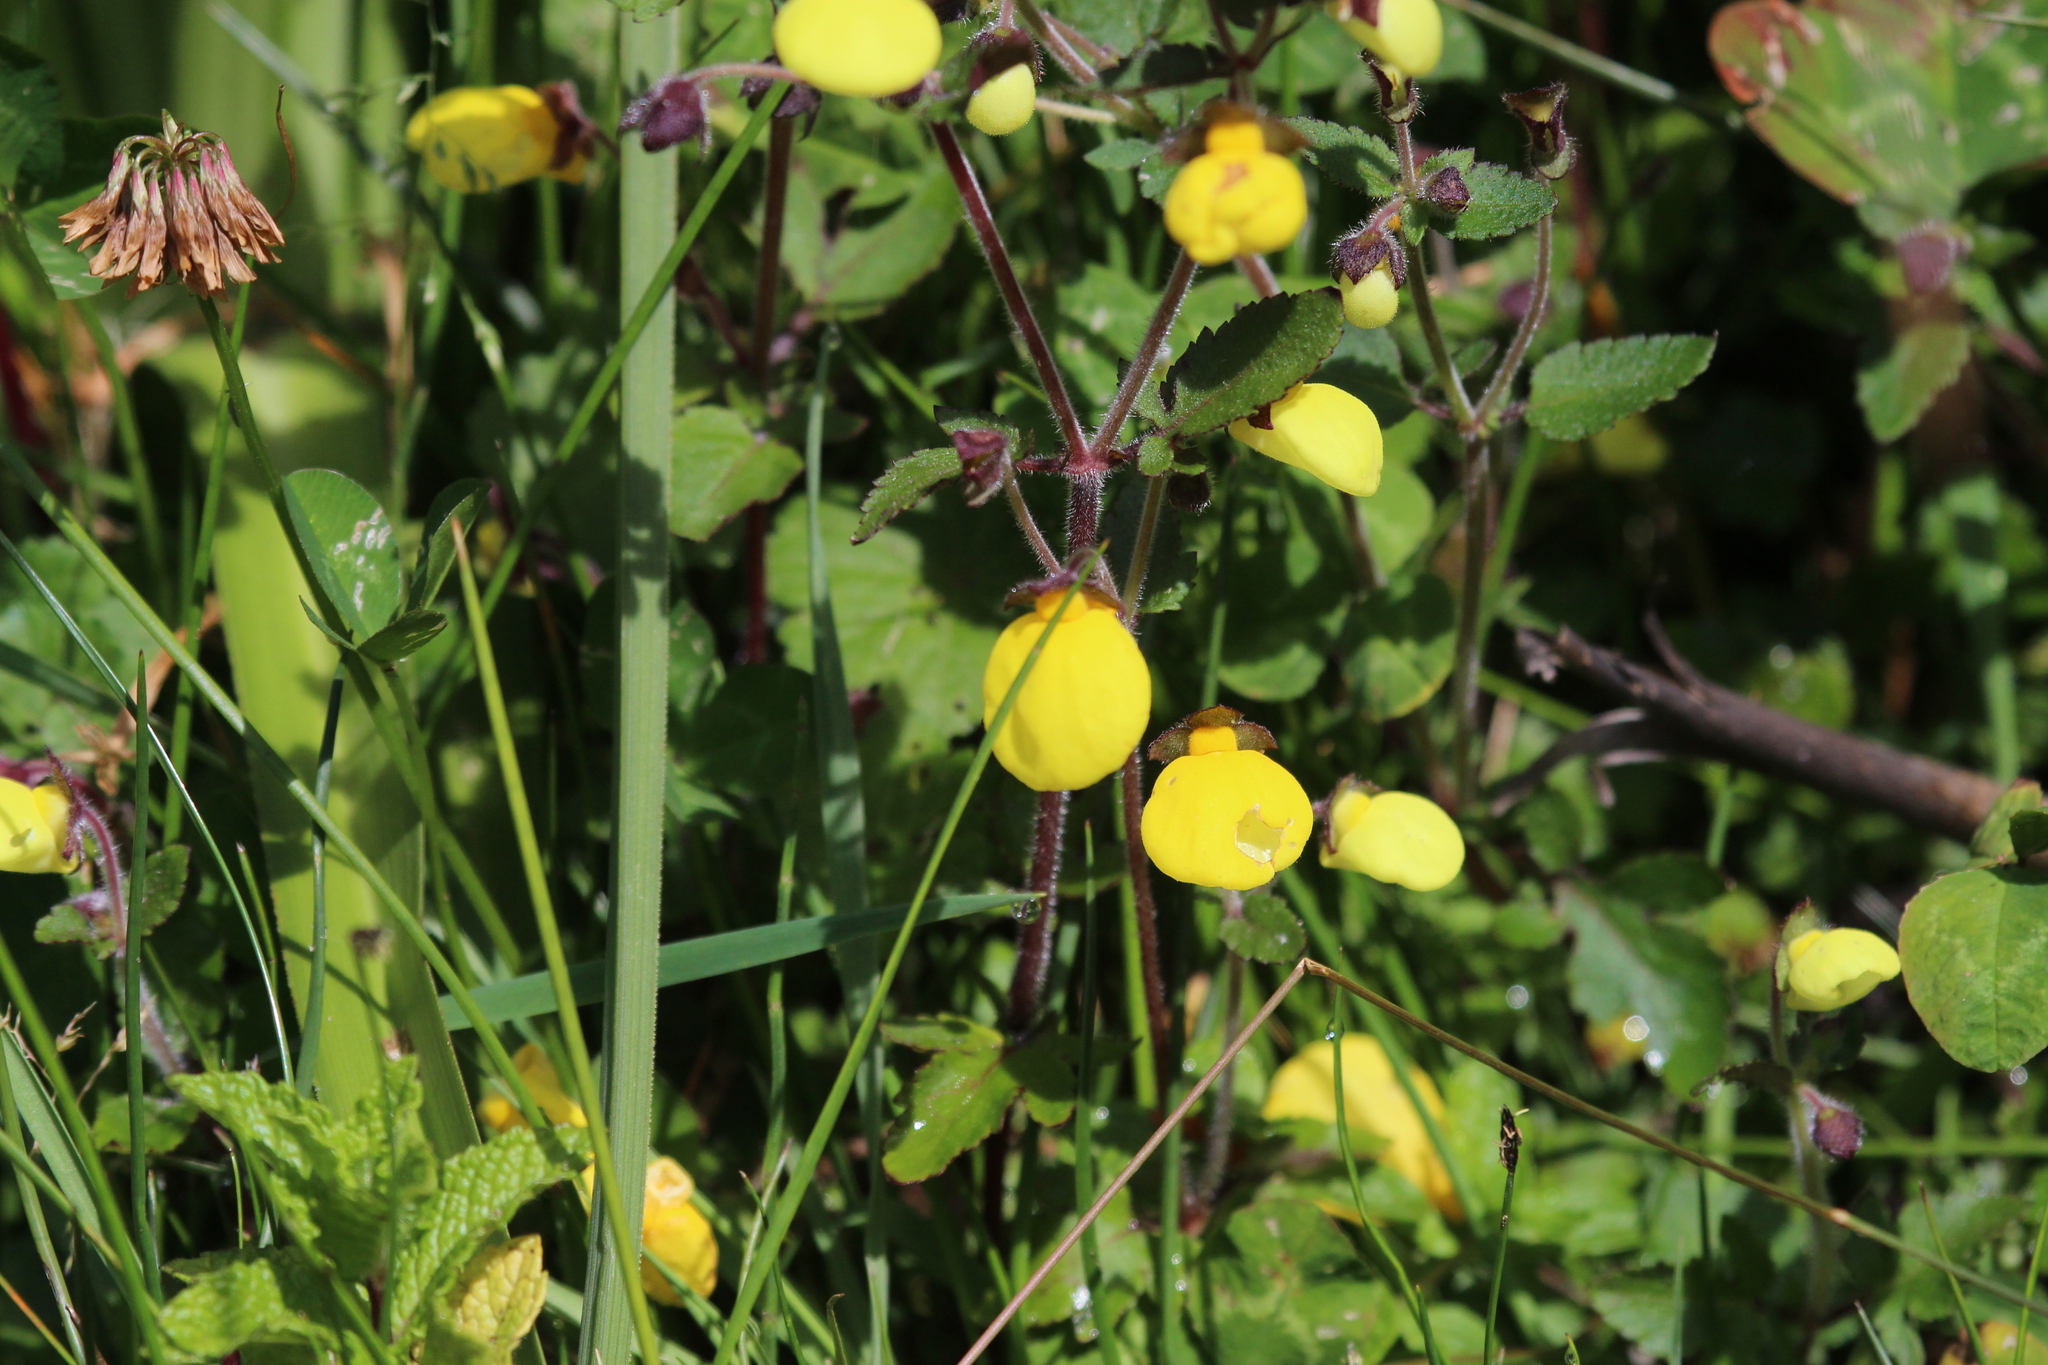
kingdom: Plantae
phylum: Tracheophyta
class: Magnoliopsida
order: Lamiales
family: Calceolariaceae
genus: Calceolaria
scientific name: Calceolaria tripartita
